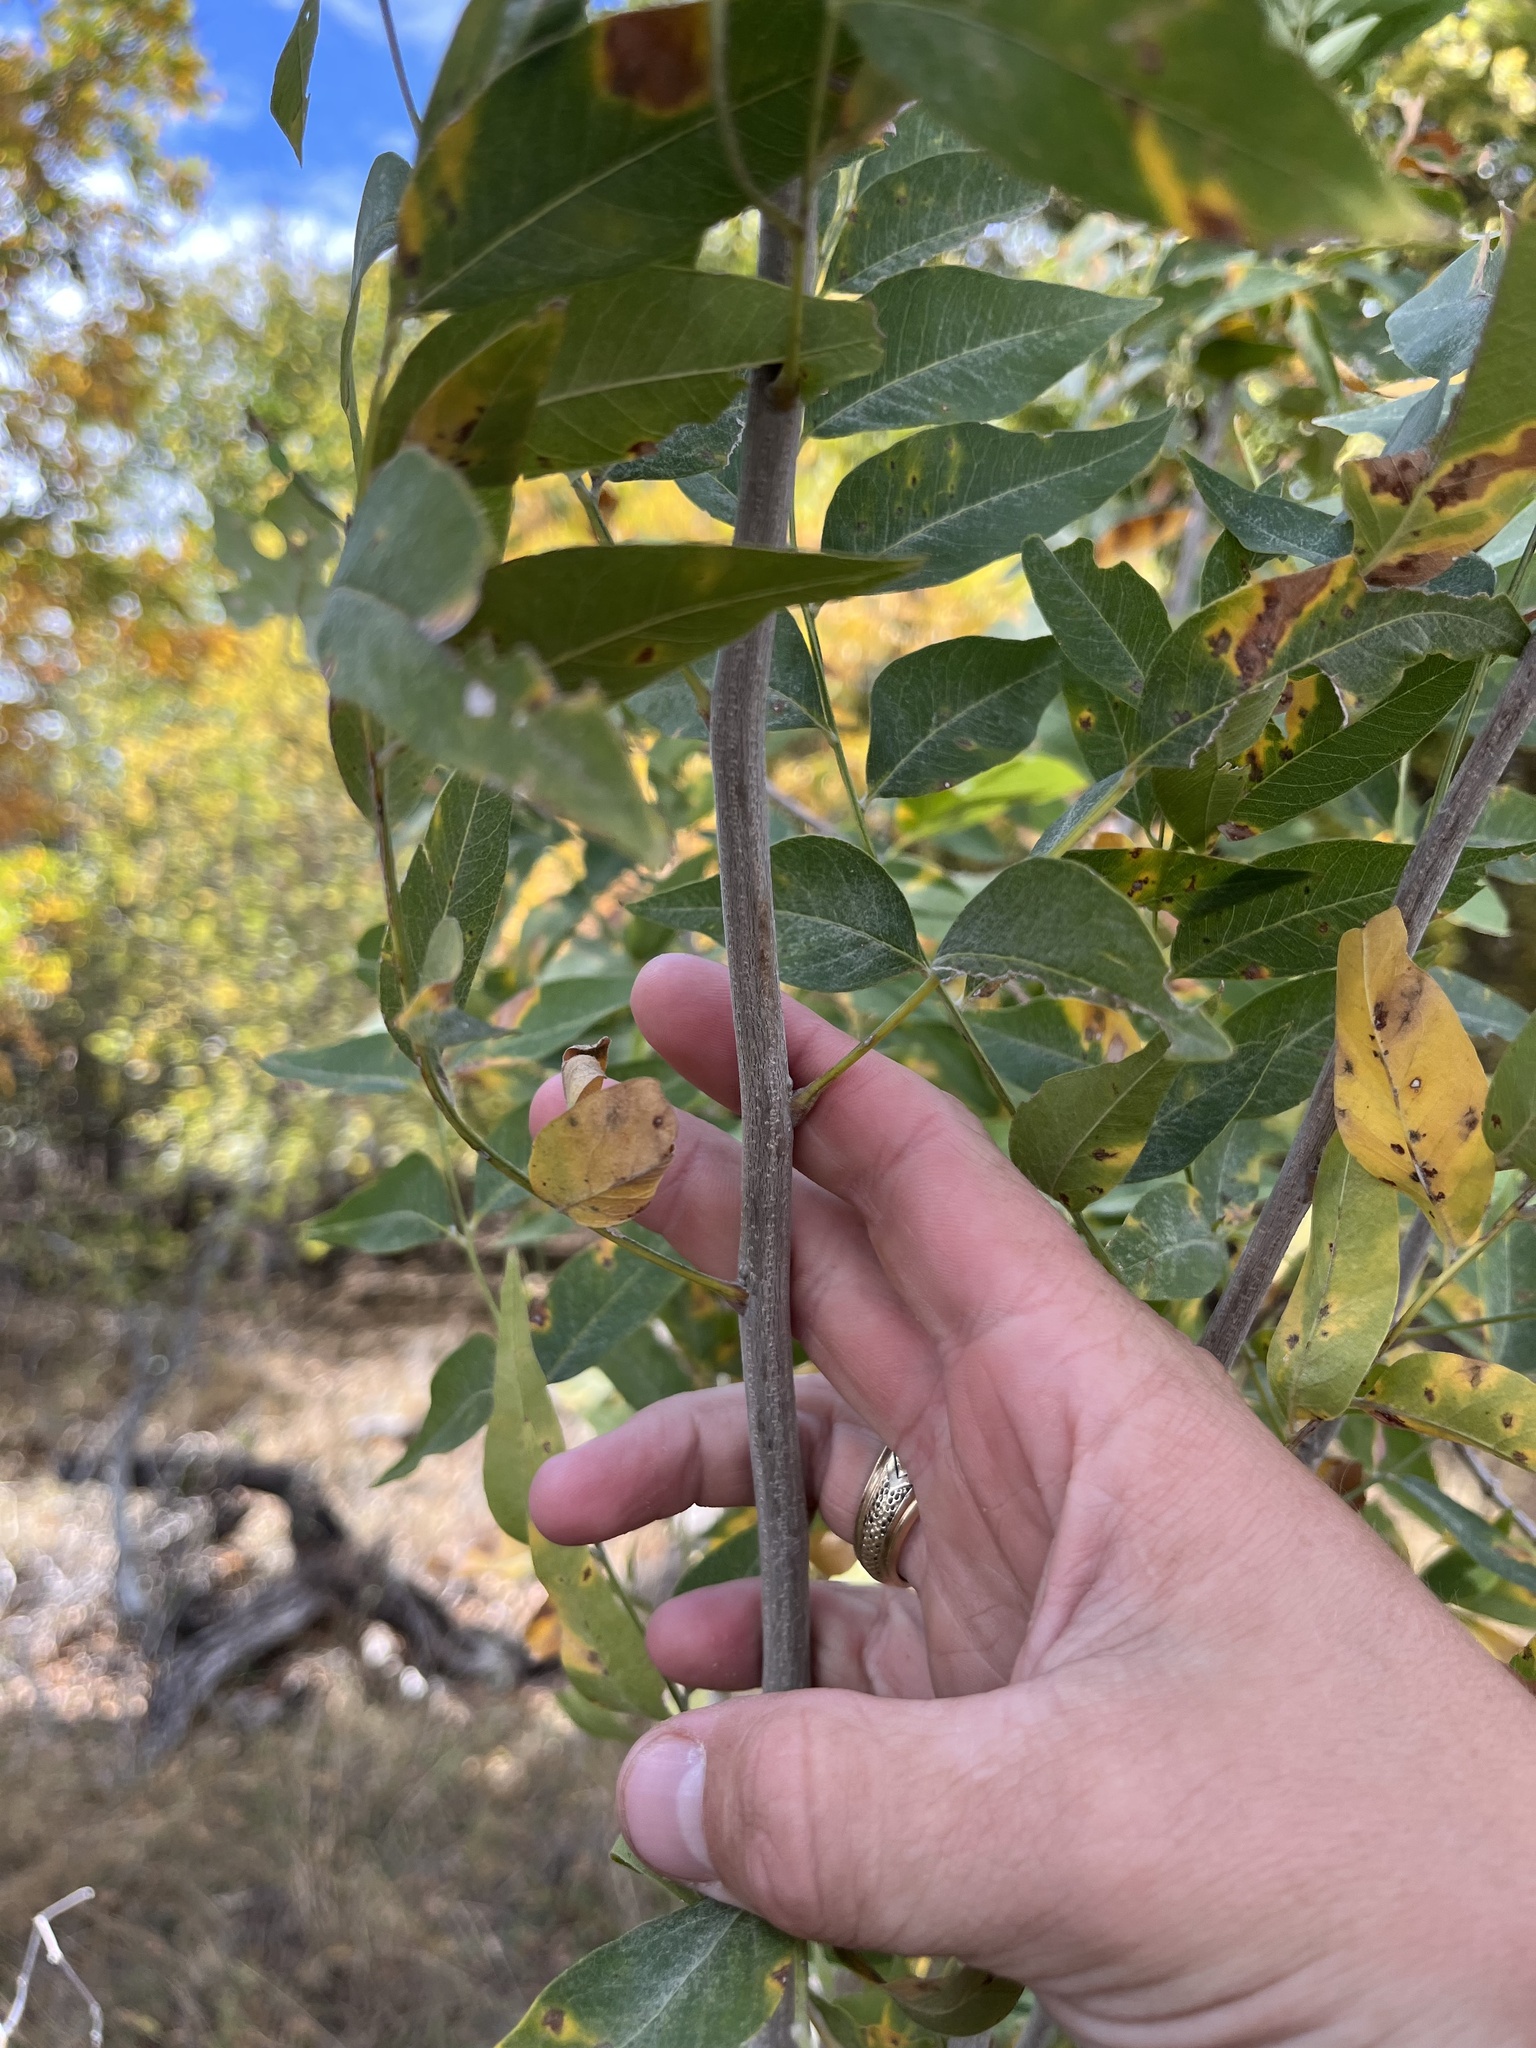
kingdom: Plantae
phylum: Tracheophyta
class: Magnoliopsida
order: Sapindales
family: Sapindaceae
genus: Sapindus
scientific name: Sapindus drummondii
